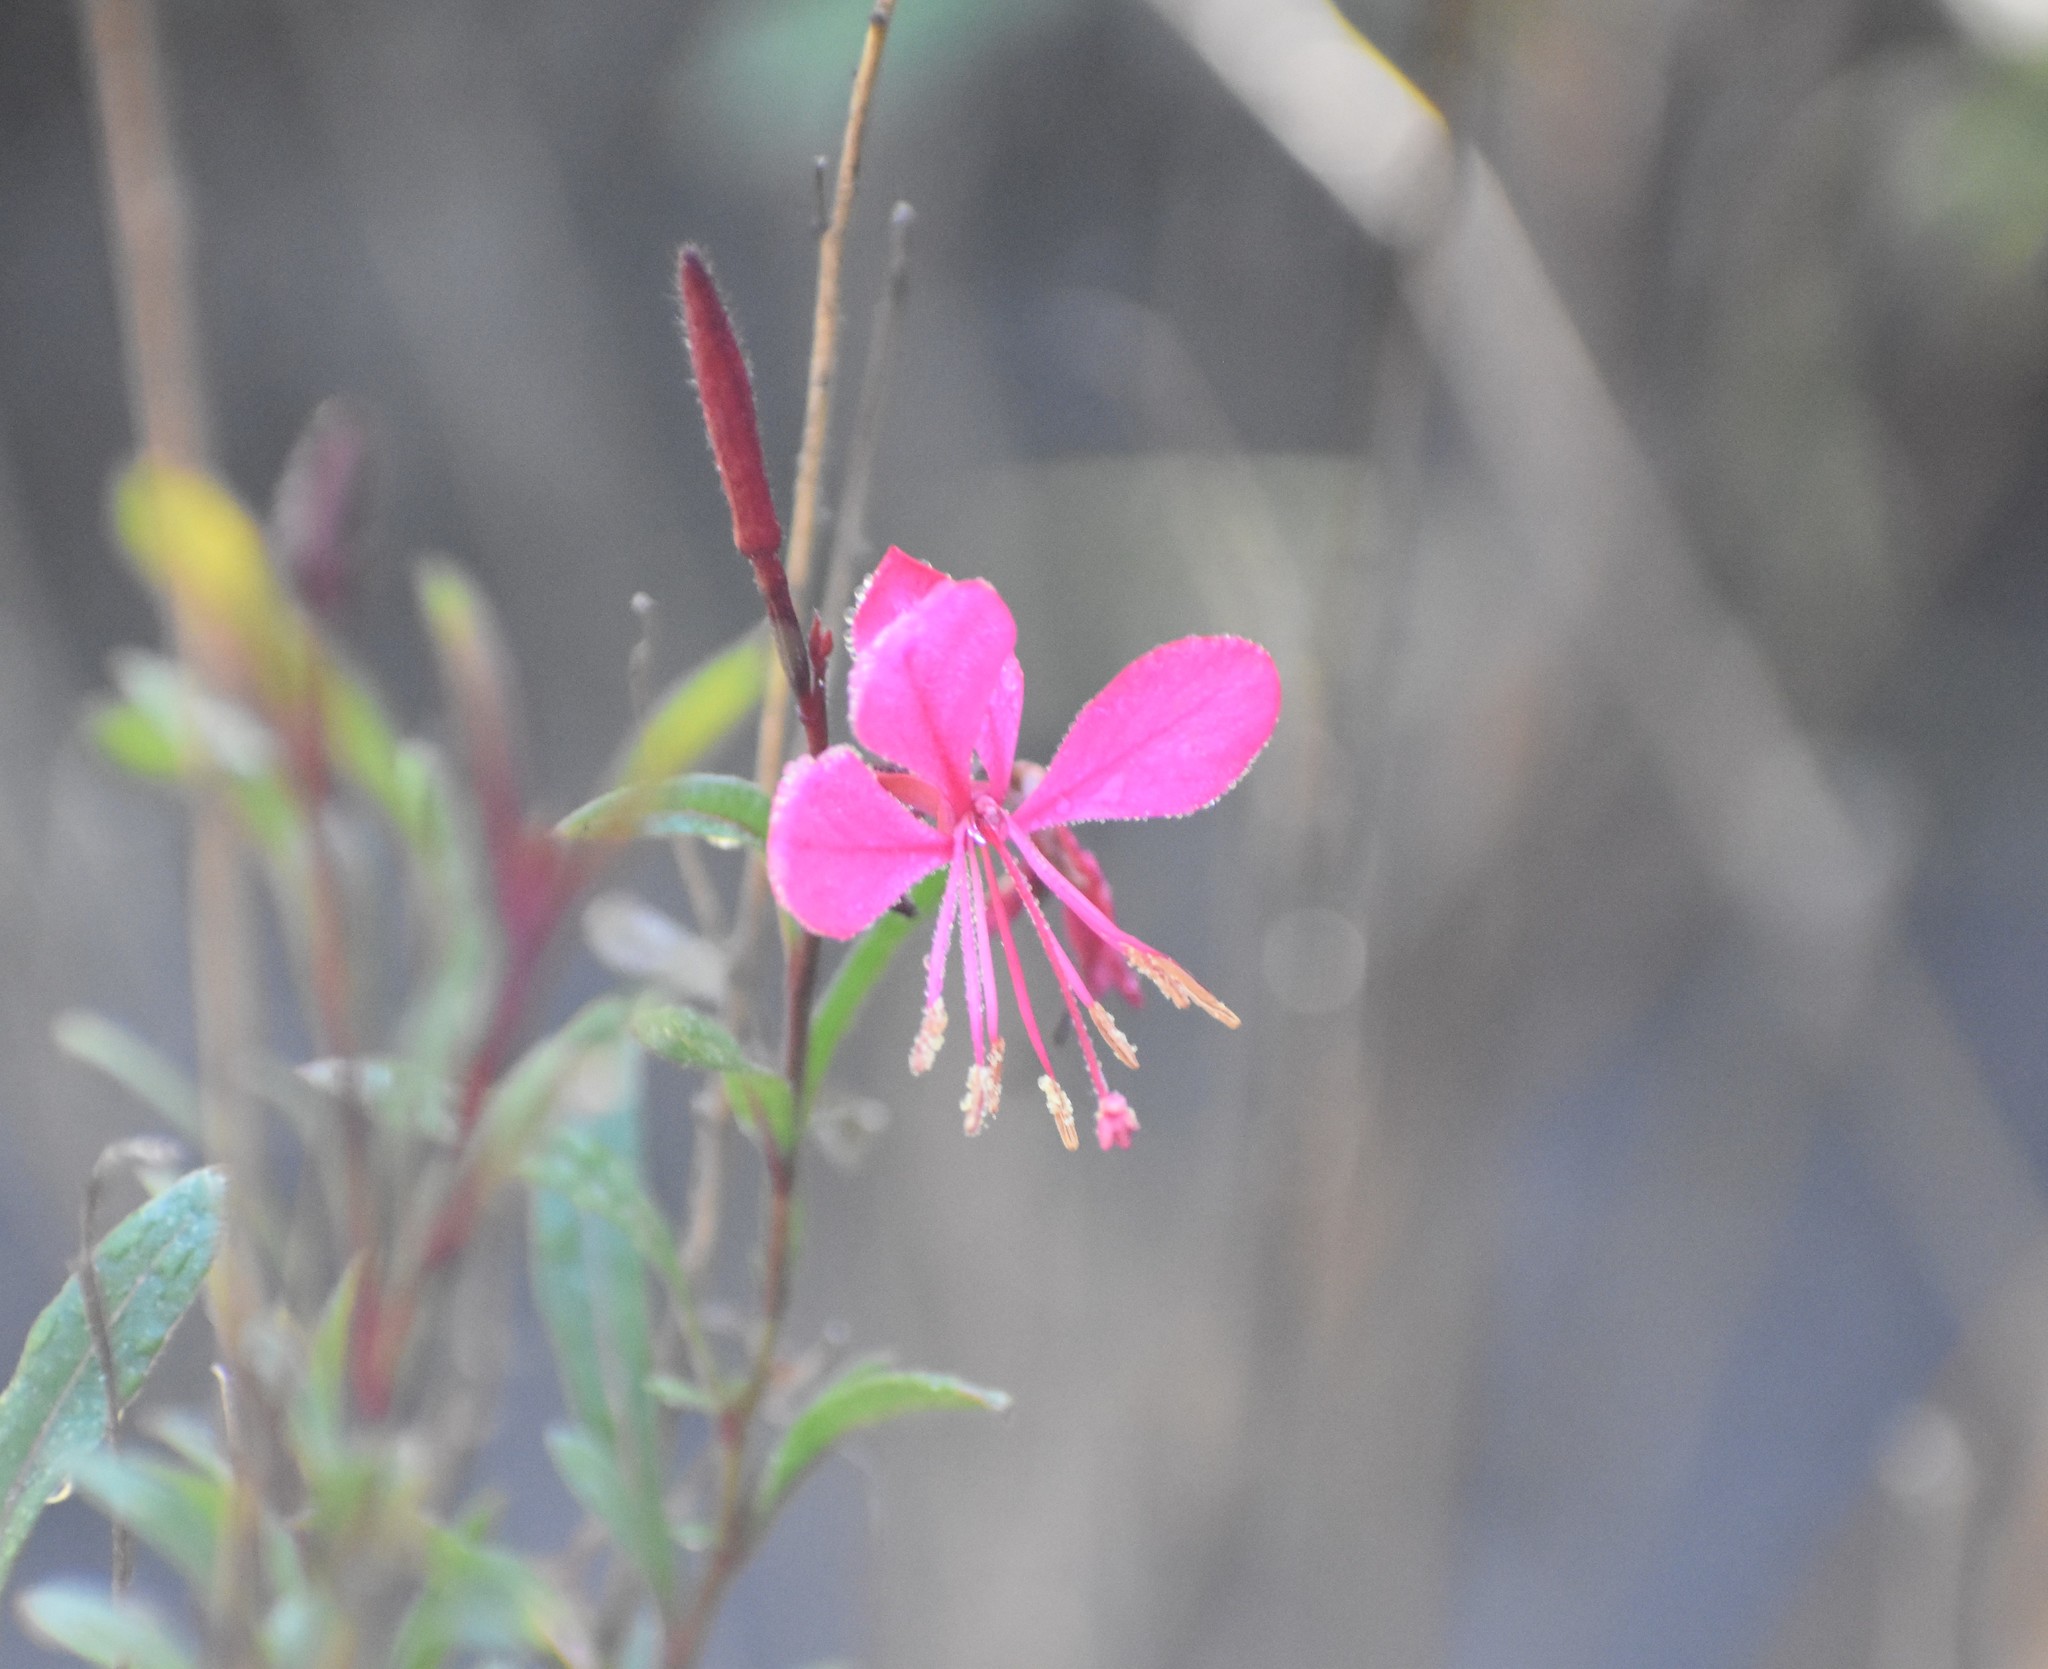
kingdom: Plantae
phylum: Tracheophyta
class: Magnoliopsida
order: Myrtales
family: Onagraceae
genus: Oenothera
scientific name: Oenothera lindheimeri
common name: Lindheimer's beeblossom
